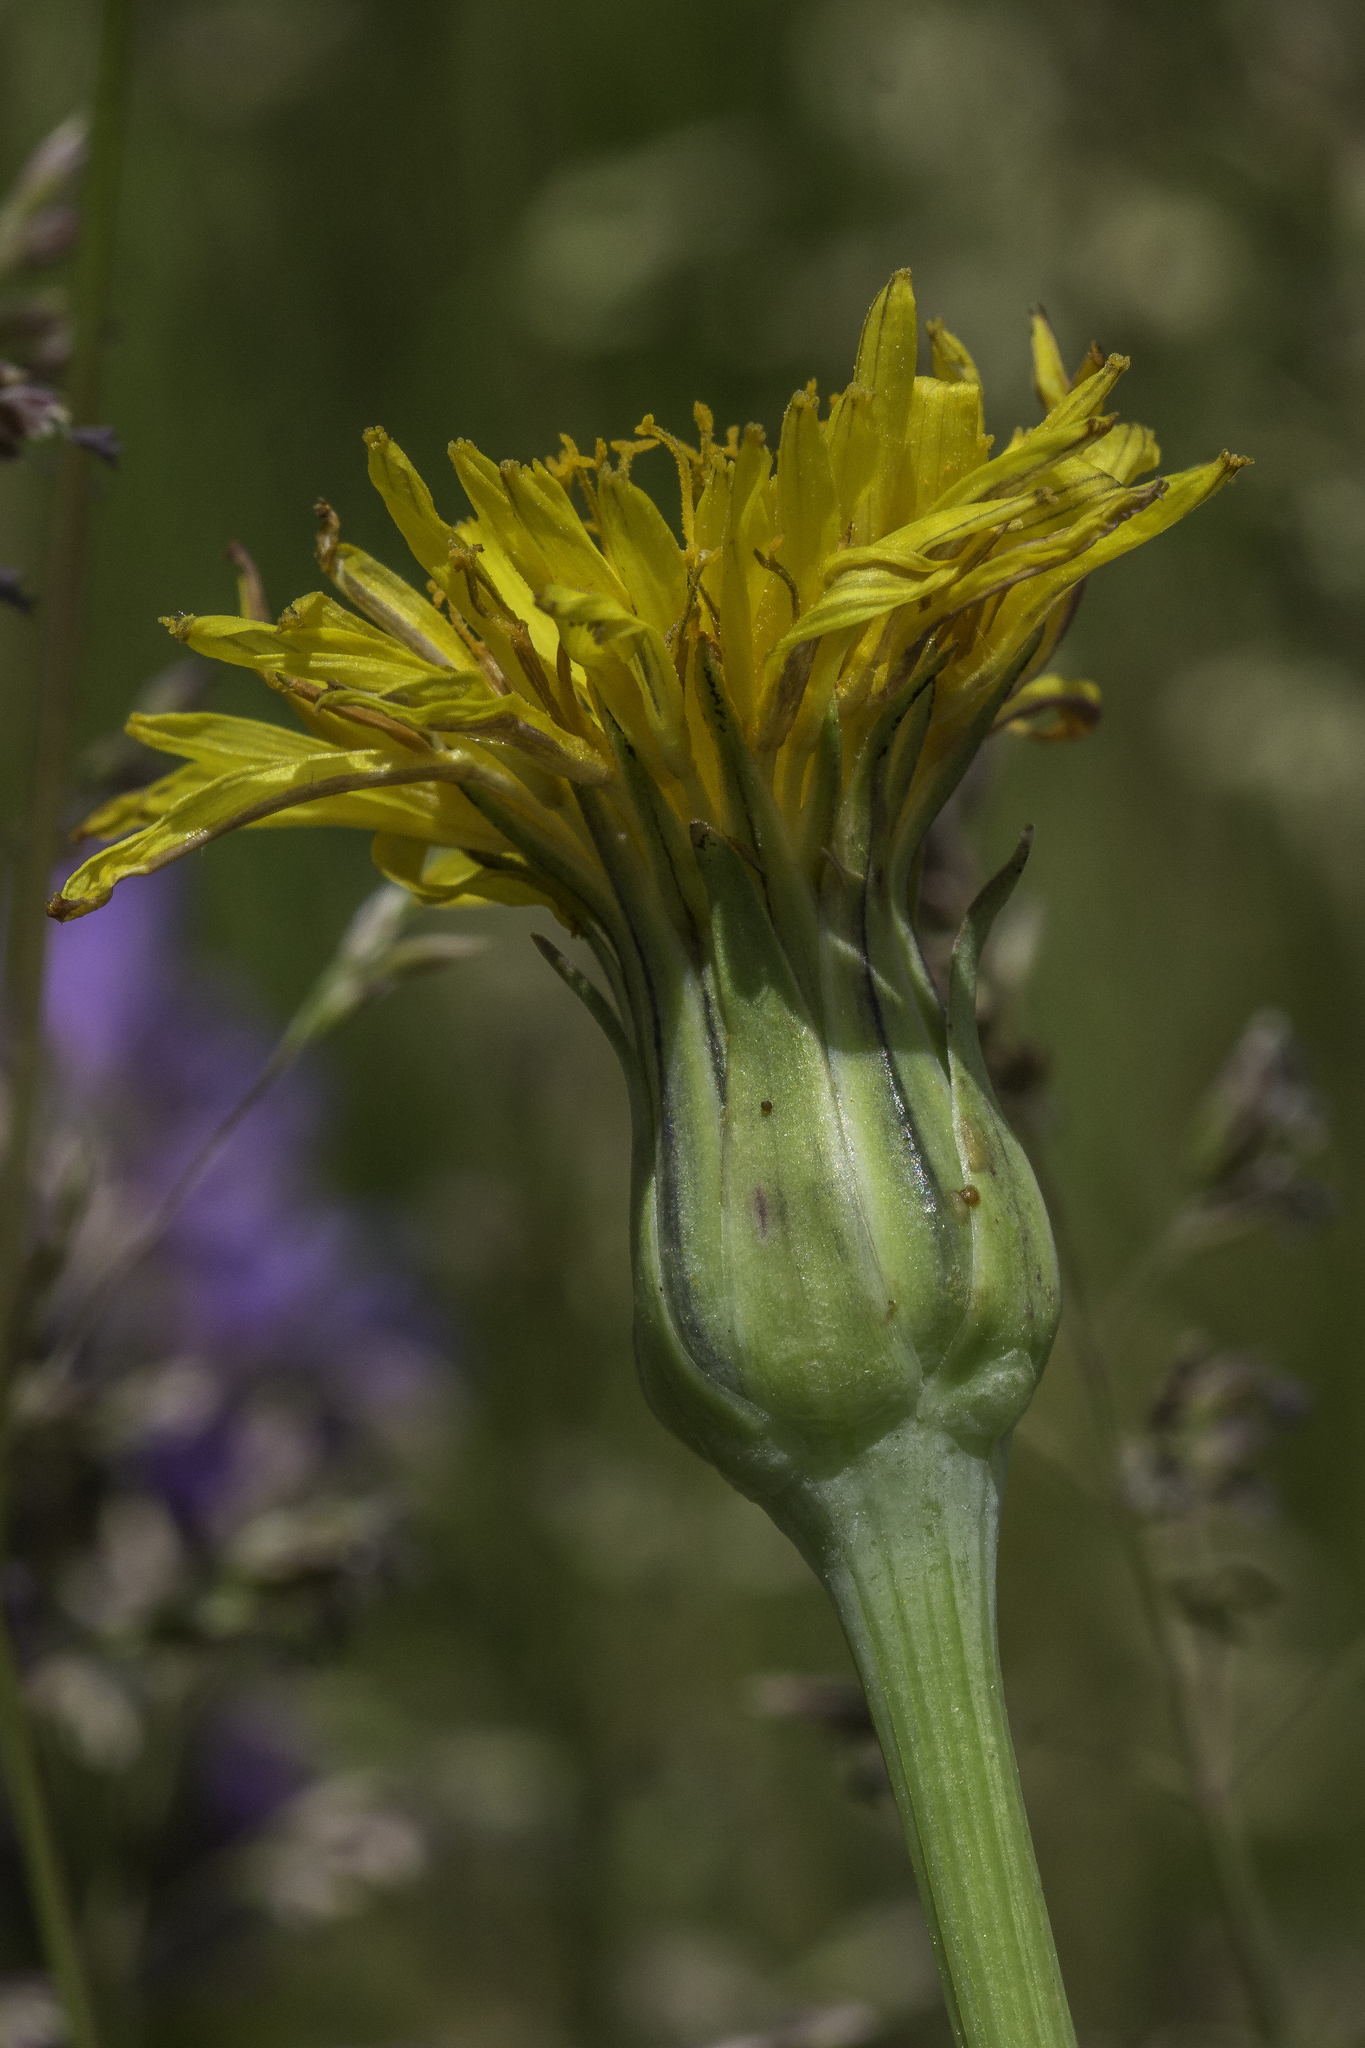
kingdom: Plantae
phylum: Tracheophyta
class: Magnoliopsida
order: Asterales
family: Asteraceae
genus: Agoseris
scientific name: Agoseris glauca
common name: Prairie agoseris
